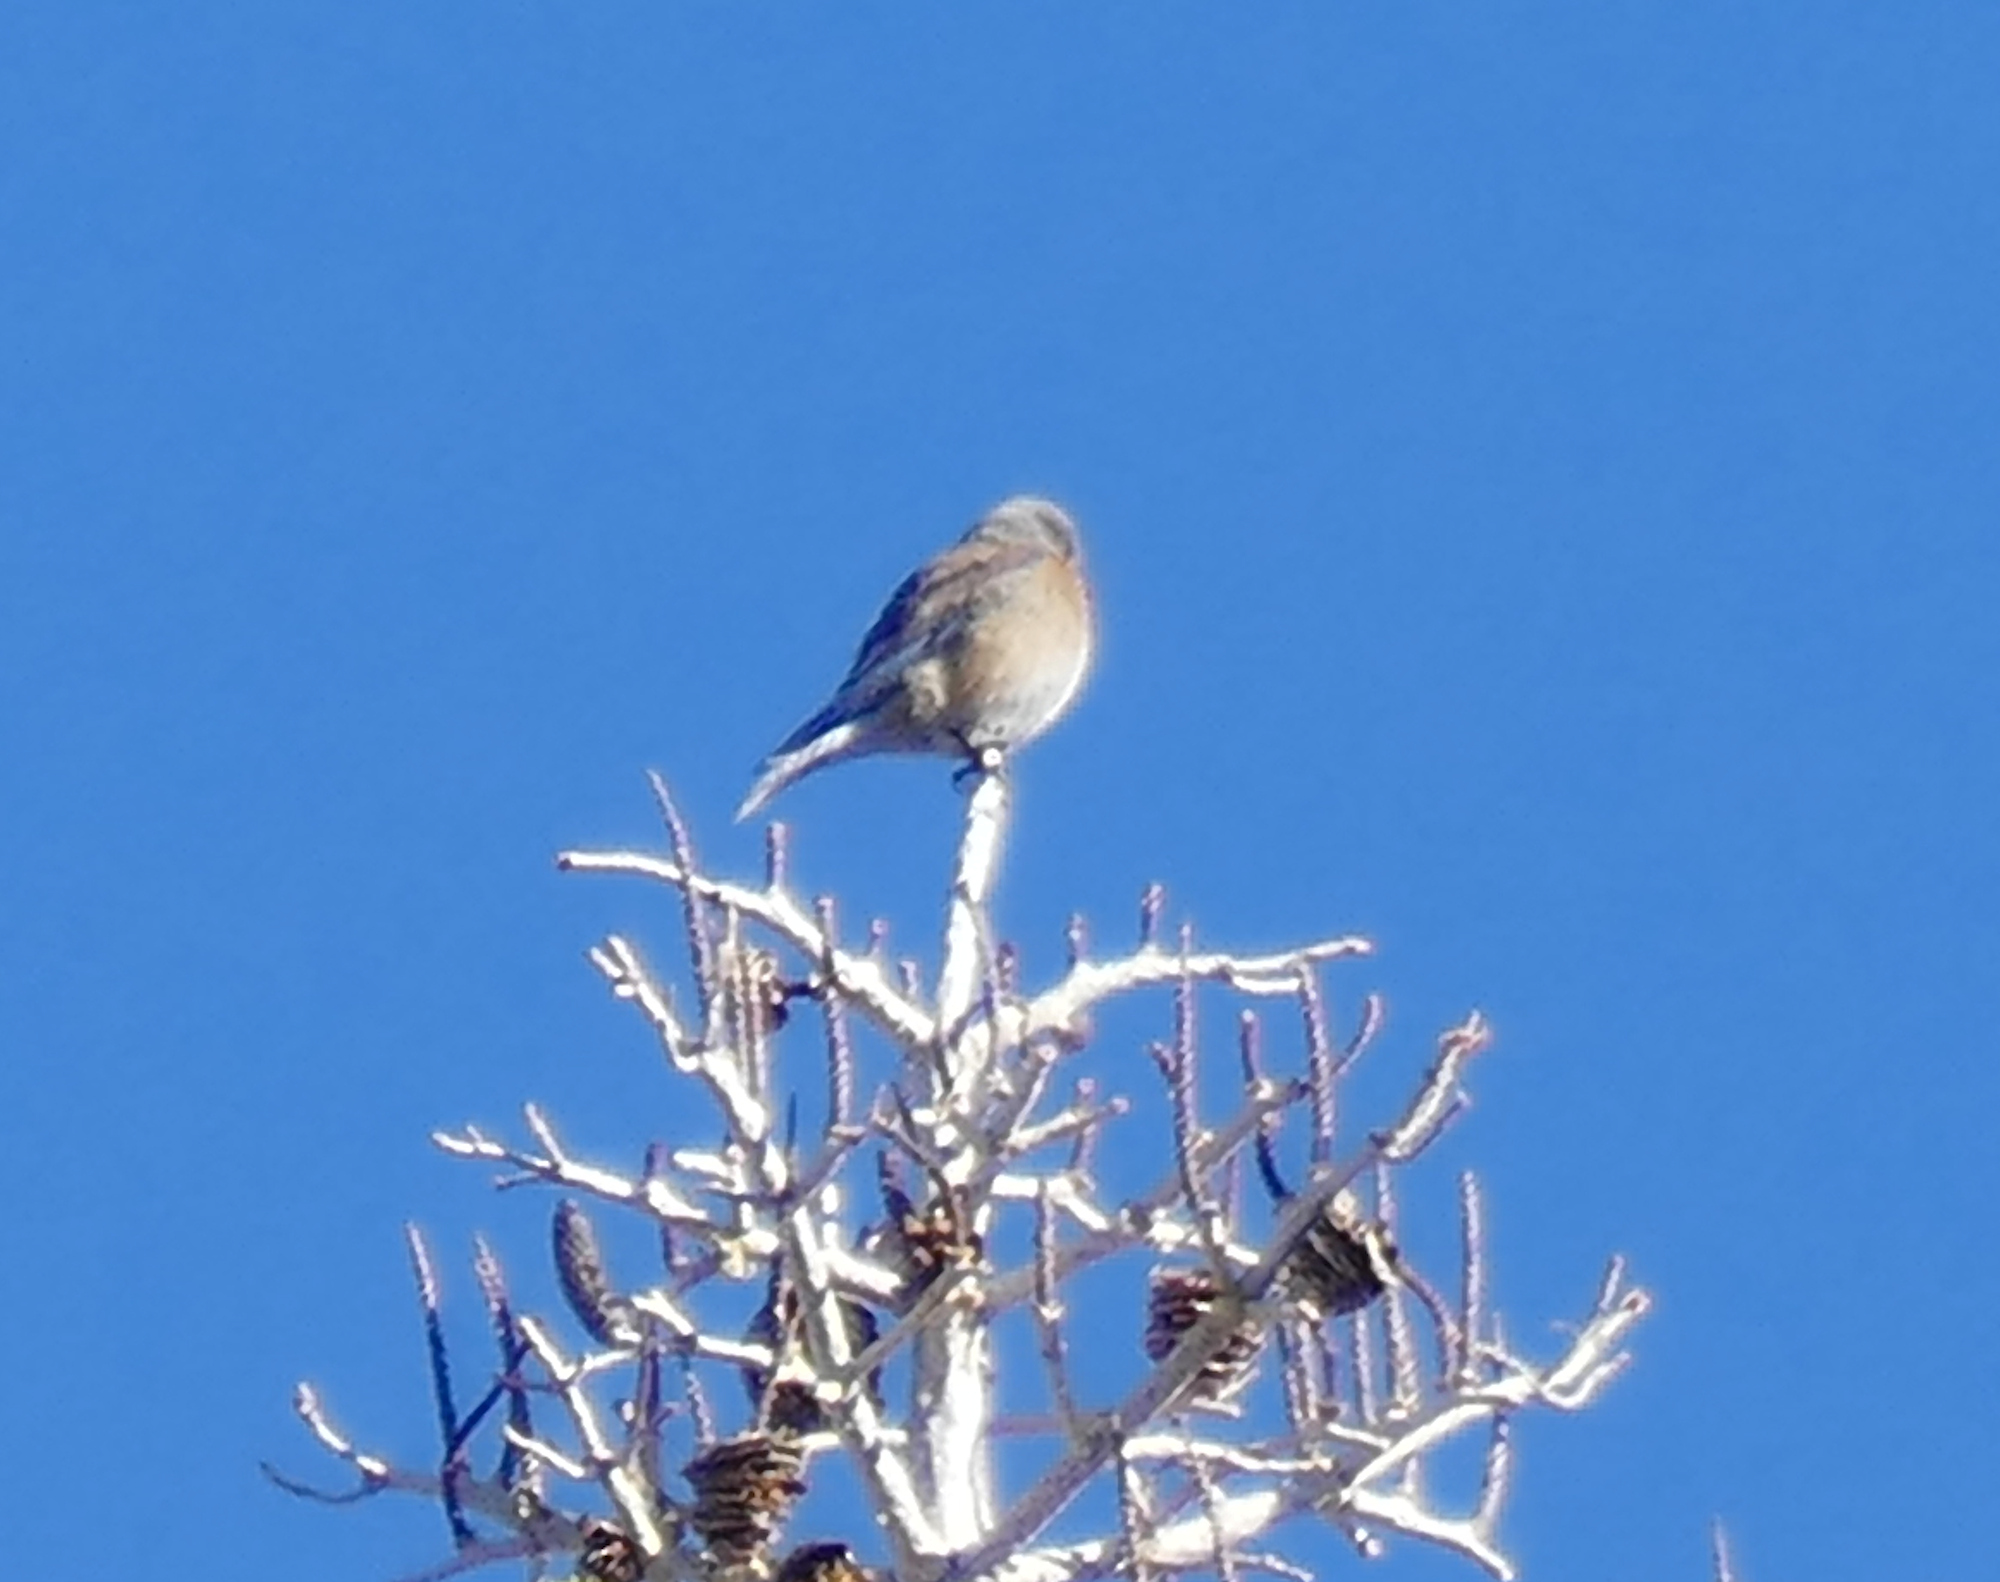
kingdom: Animalia
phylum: Chordata
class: Aves
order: Passeriformes
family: Turdidae
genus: Sialia
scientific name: Sialia mexicana
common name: Western bluebird
